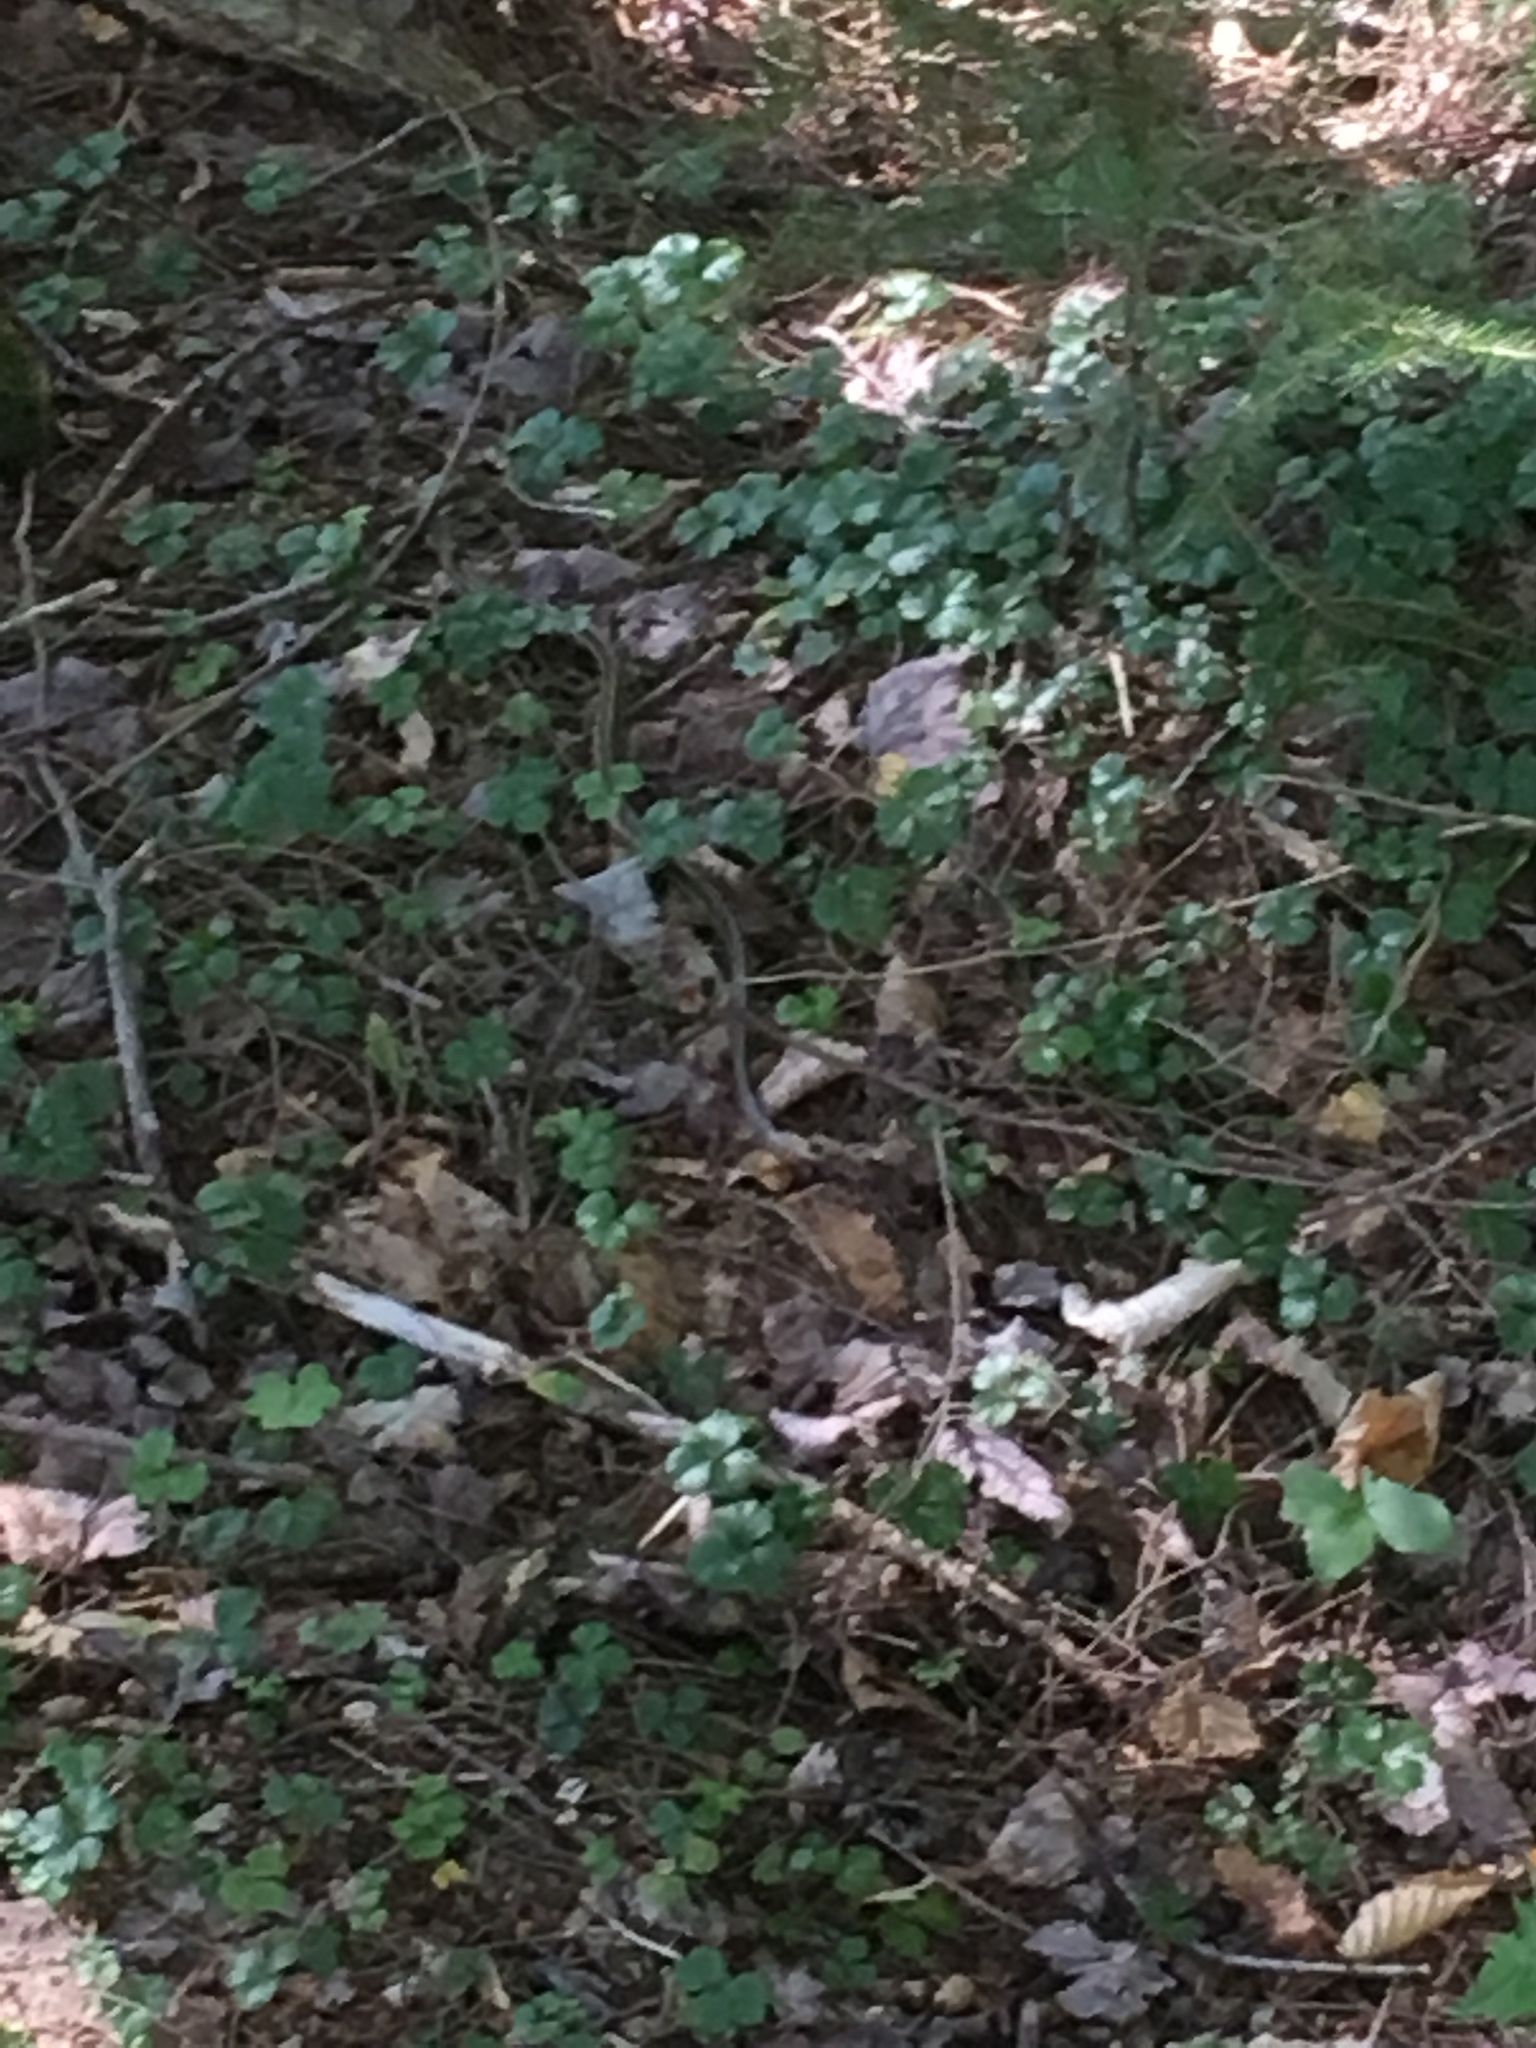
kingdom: Animalia
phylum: Chordata
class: Squamata
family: Colubridae
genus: Thamnophis
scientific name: Thamnophis sirtalis
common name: Common garter snake
